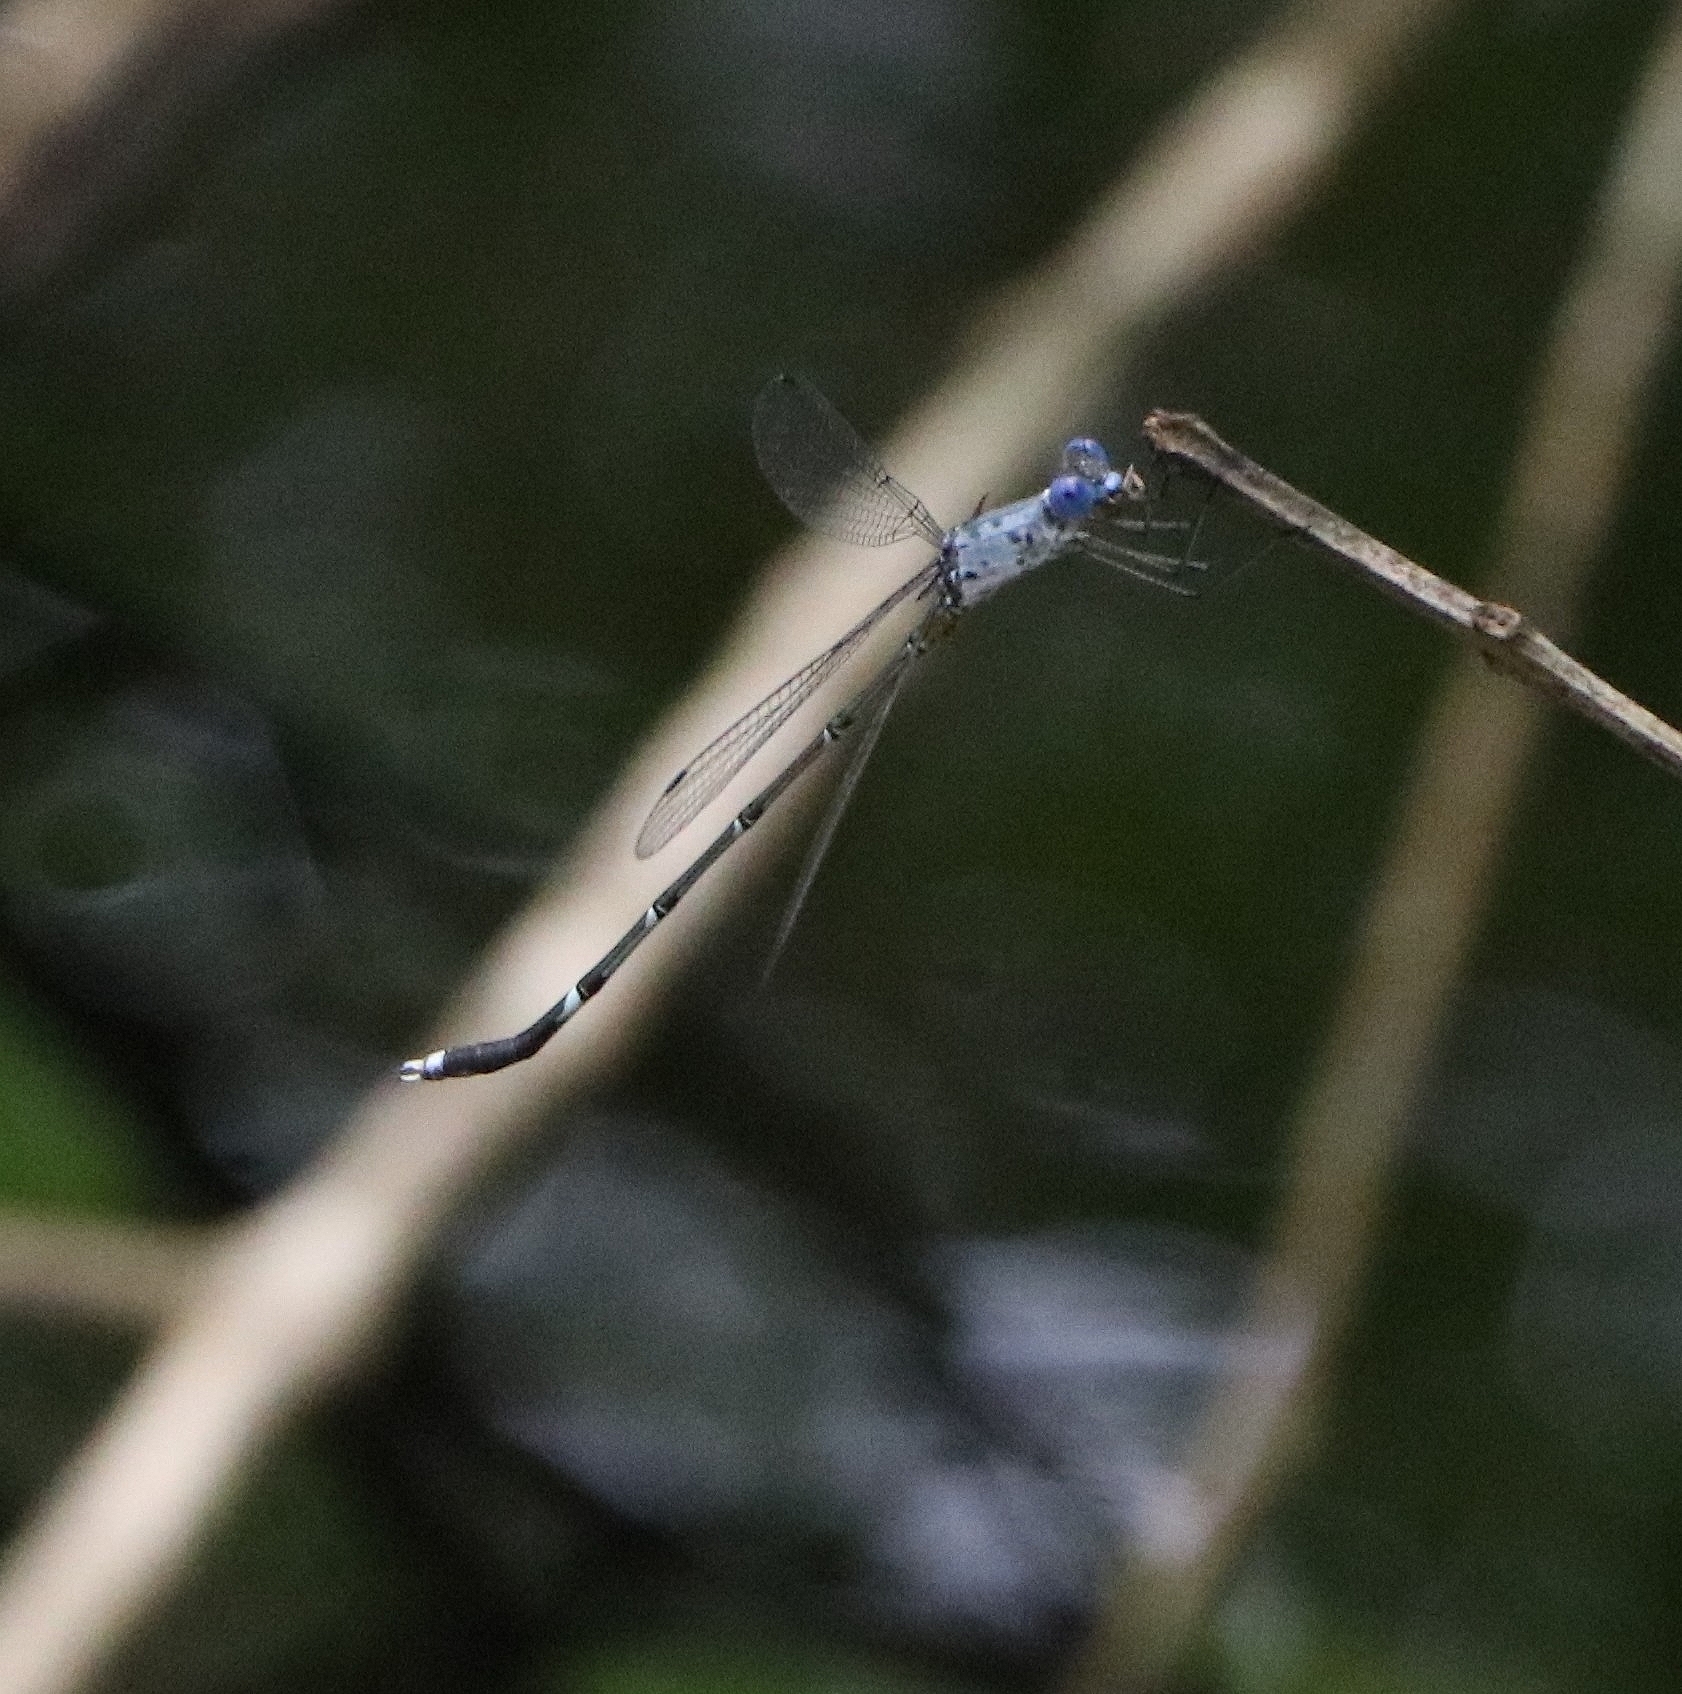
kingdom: Animalia
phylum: Arthropoda
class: Insecta
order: Odonata
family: Lestidae
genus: Lestes
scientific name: Lestes dorothea
